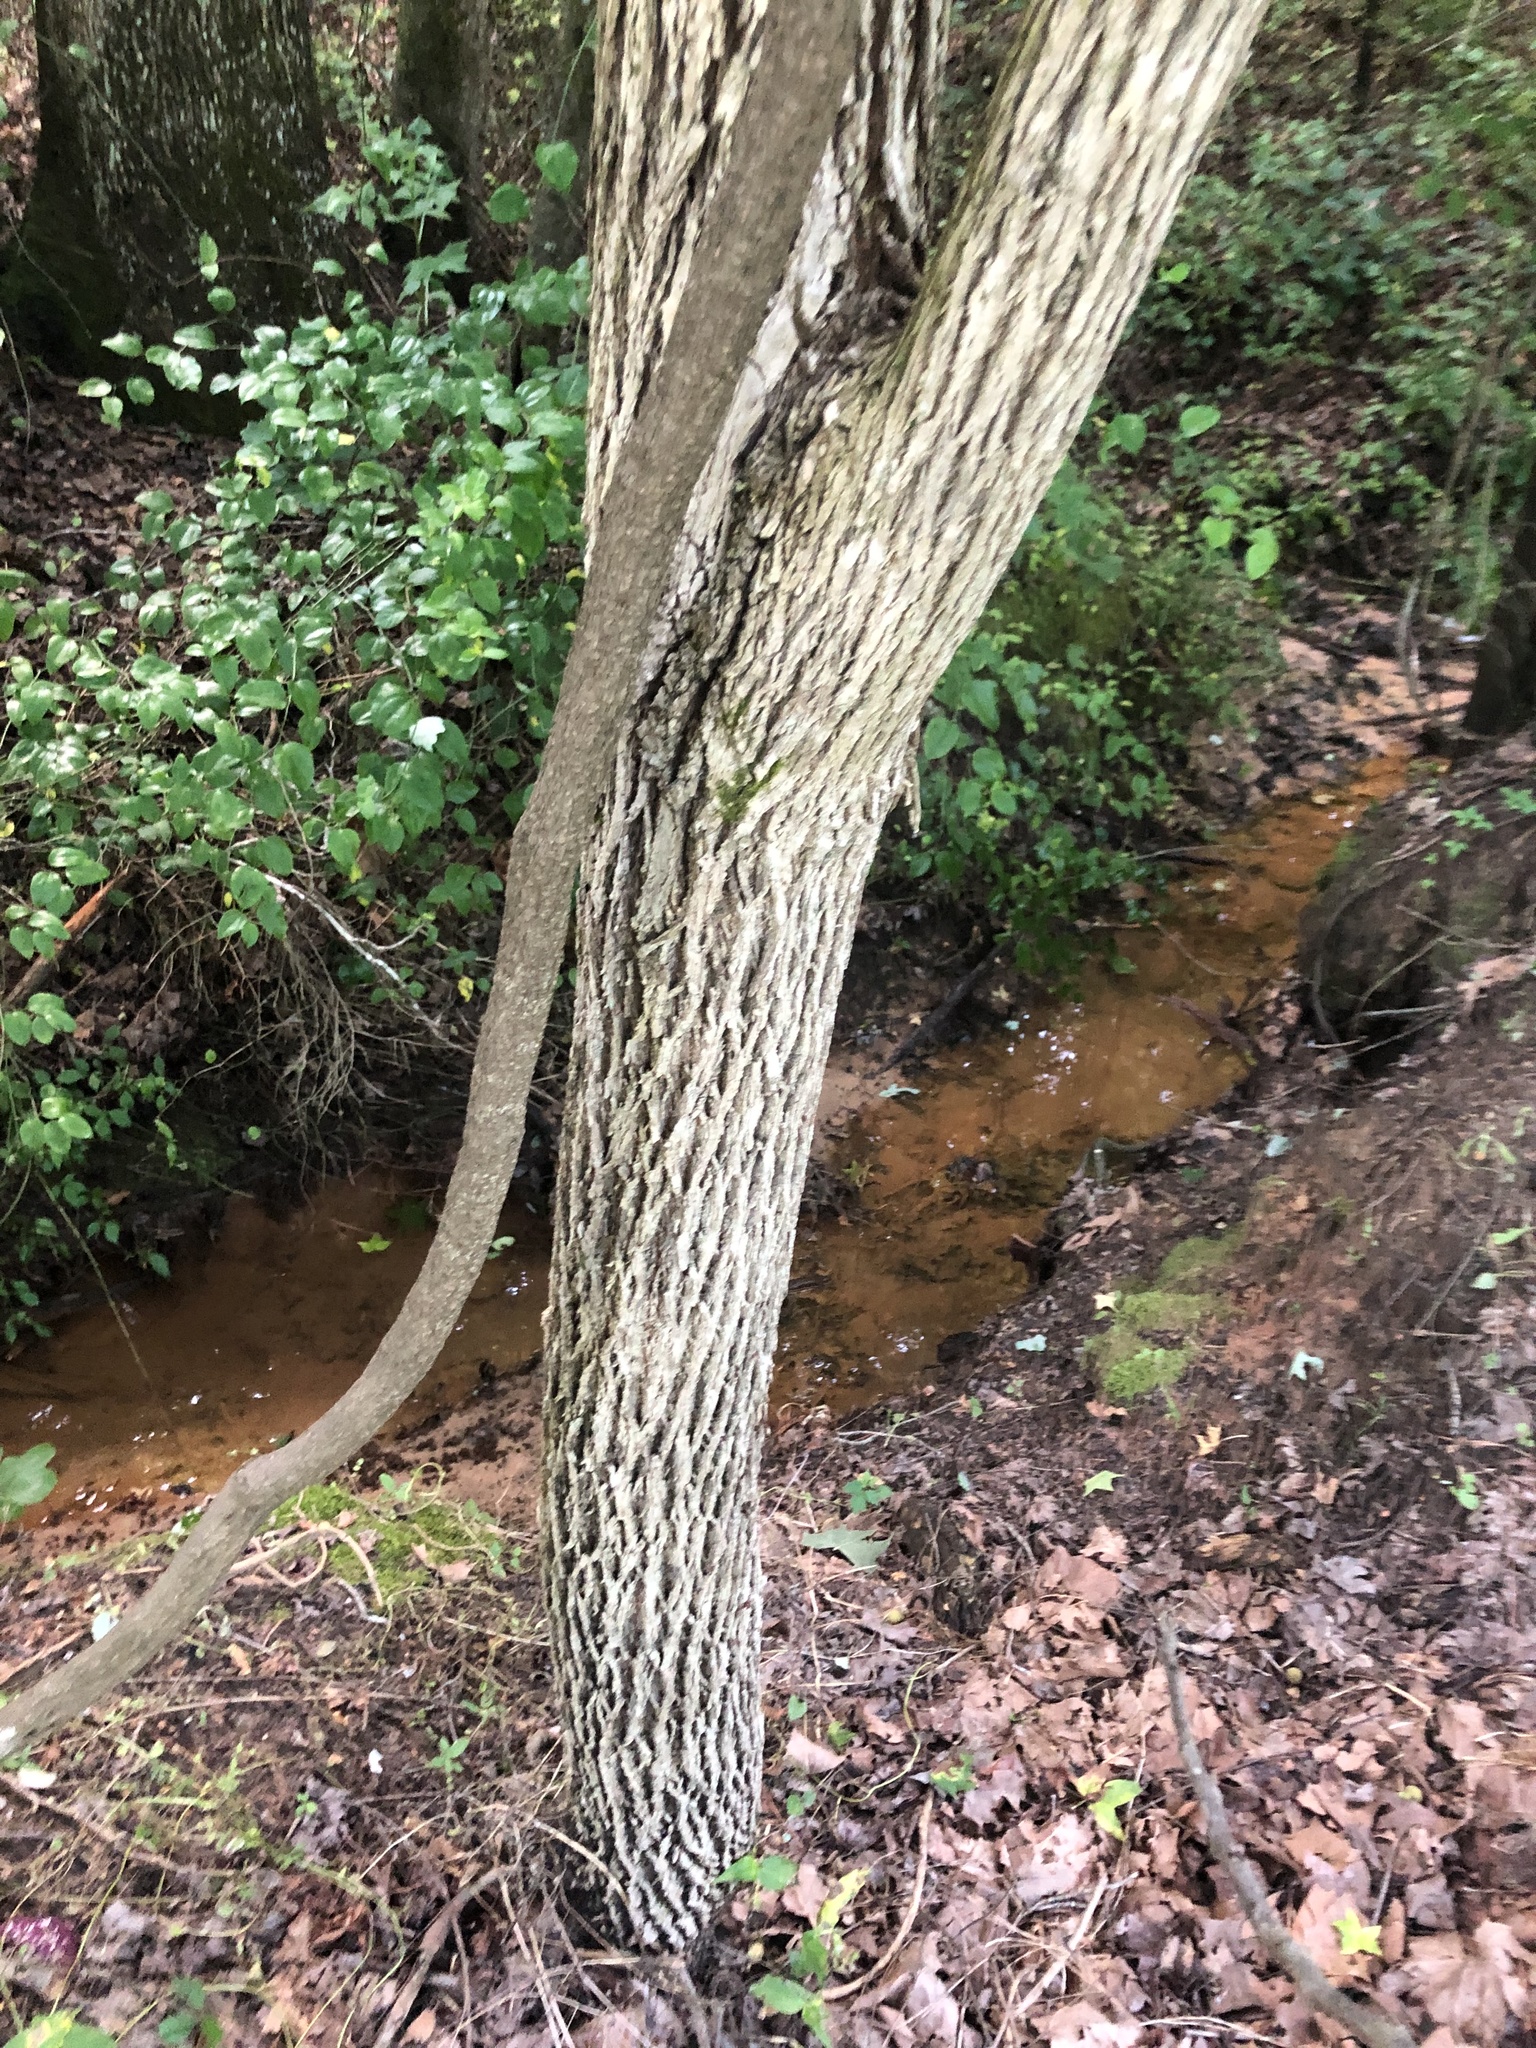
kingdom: Plantae
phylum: Tracheophyta
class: Magnoliopsida
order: Fagales
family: Juglandaceae
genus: Juglans
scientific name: Juglans nigra
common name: Black walnut
